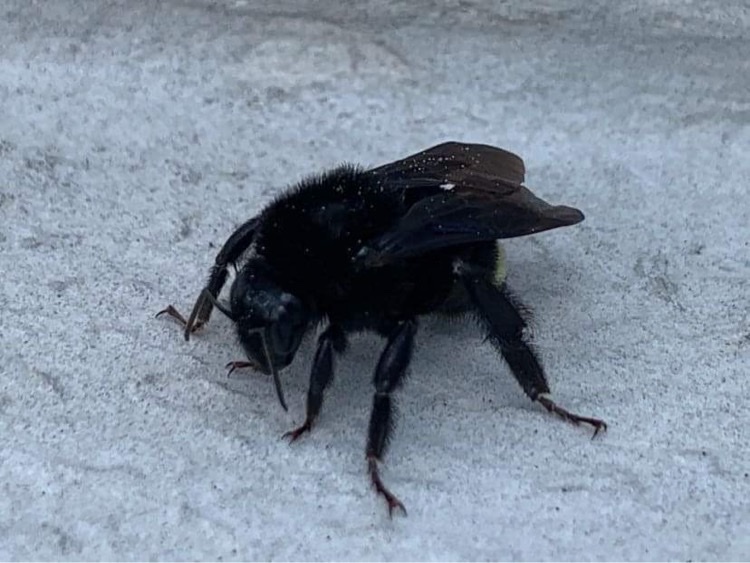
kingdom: Animalia
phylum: Arthropoda
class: Insecta
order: Hymenoptera
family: Apidae
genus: Bombus
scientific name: Bombus mexicanus
